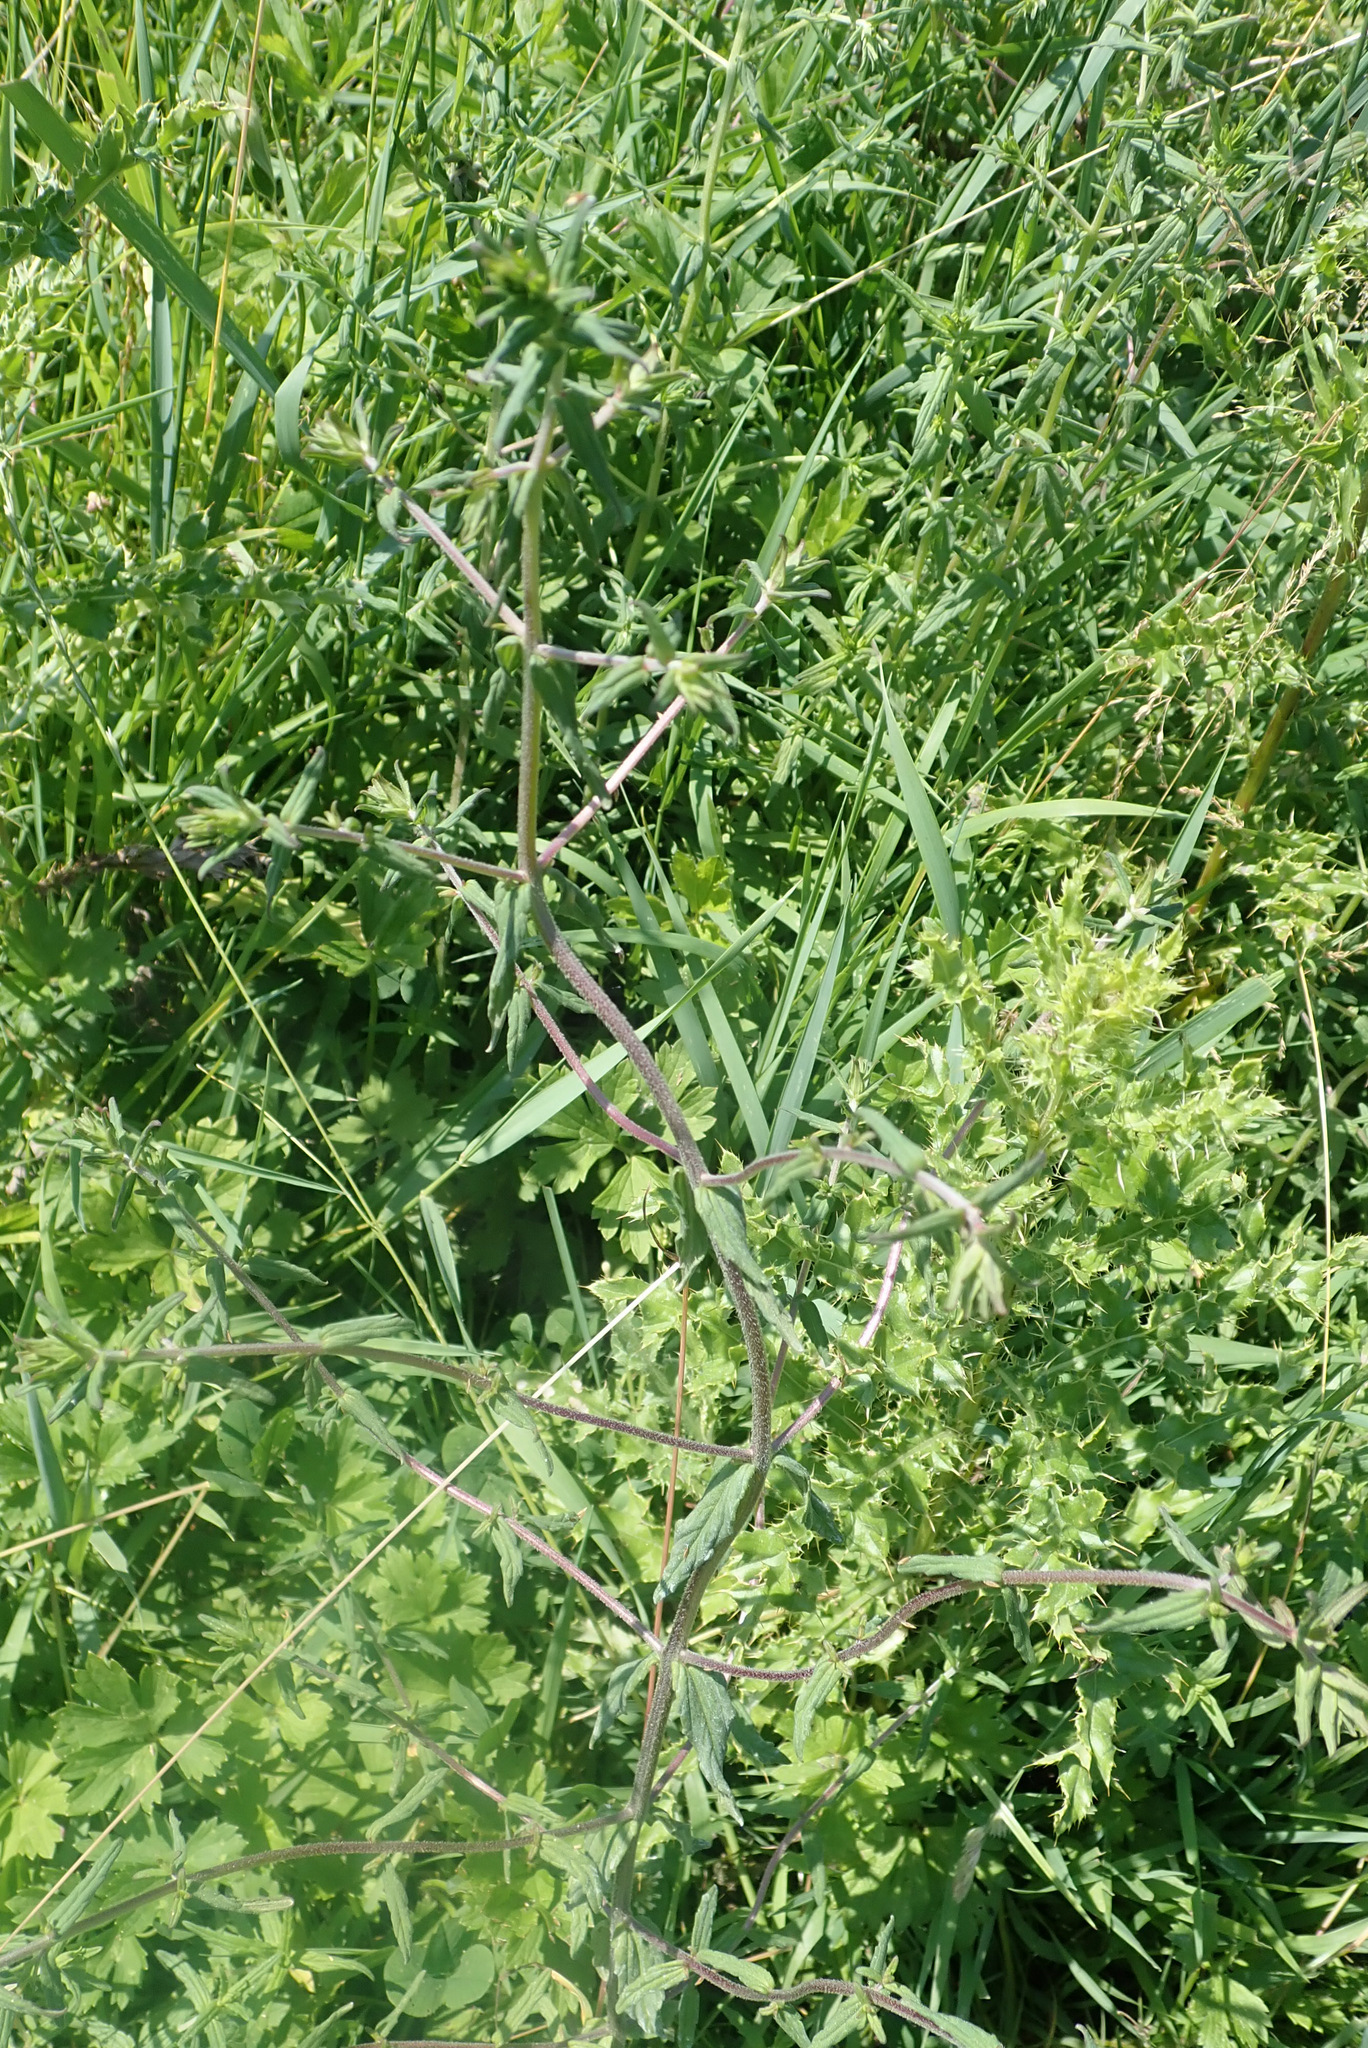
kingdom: Plantae
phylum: Tracheophyta
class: Magnoliopsida
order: Lamiales
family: Orobanchaceae
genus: Odontites
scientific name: Odontites vernus
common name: Red bartsia
